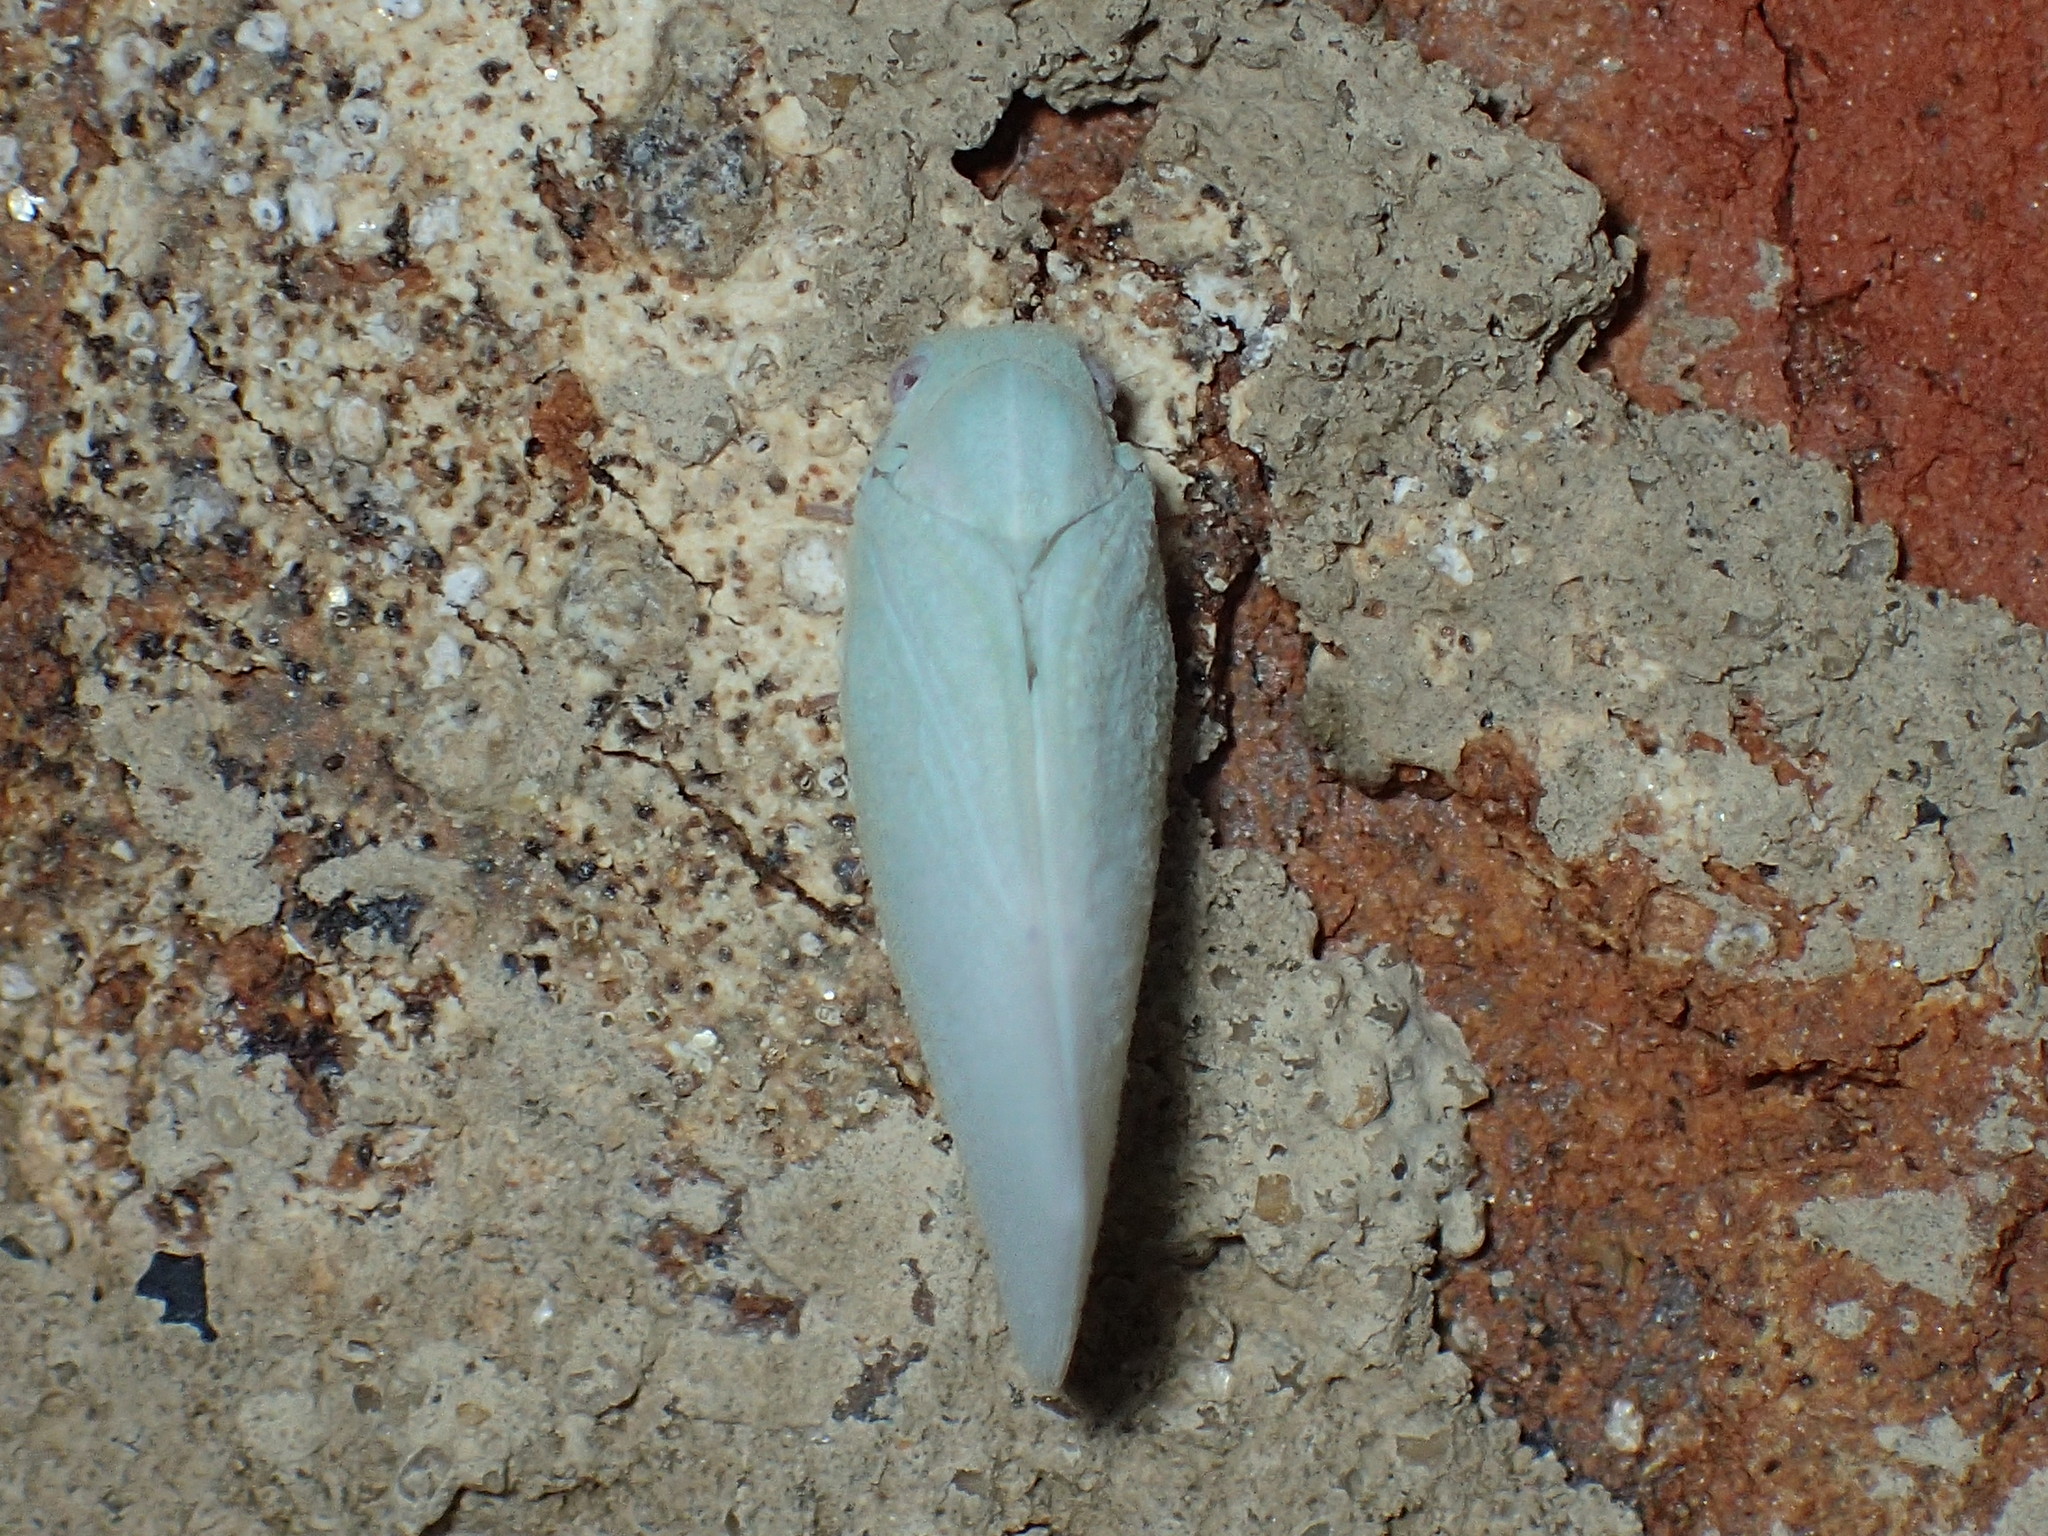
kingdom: Animalia
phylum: Arthropoda
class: Insecta
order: Hemiptera
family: Flatidae
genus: Flatormenis
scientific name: Flatormenis proxima
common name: Northern flatid planthopper
